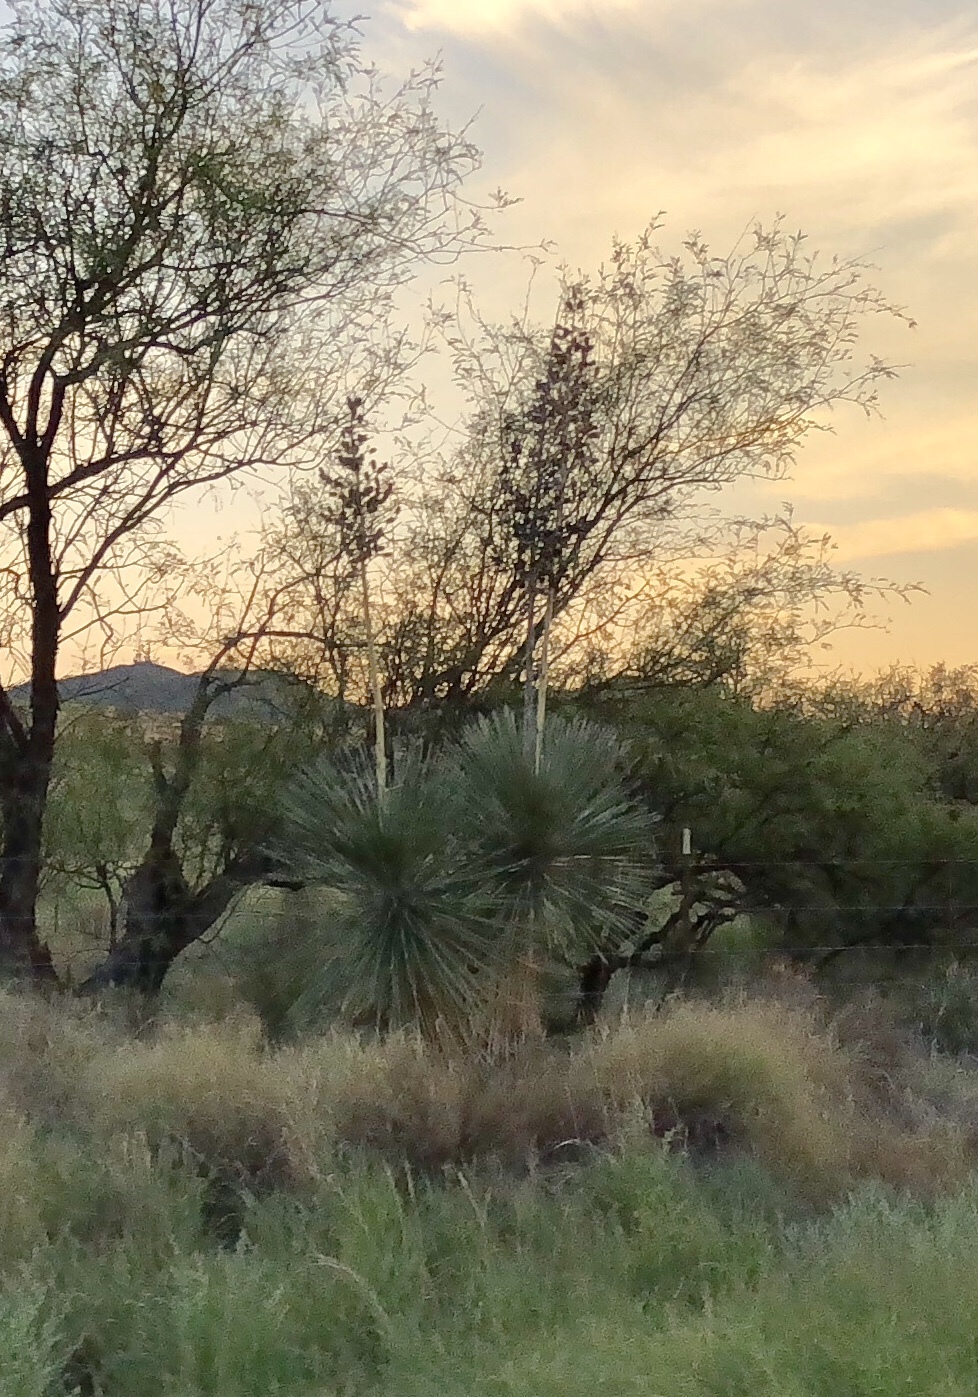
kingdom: Plantae
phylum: Tracheophyta
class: Liliopsida
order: Asparagales
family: Asparagaceae
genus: Yucca
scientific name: Yucca elata
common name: Palmella
